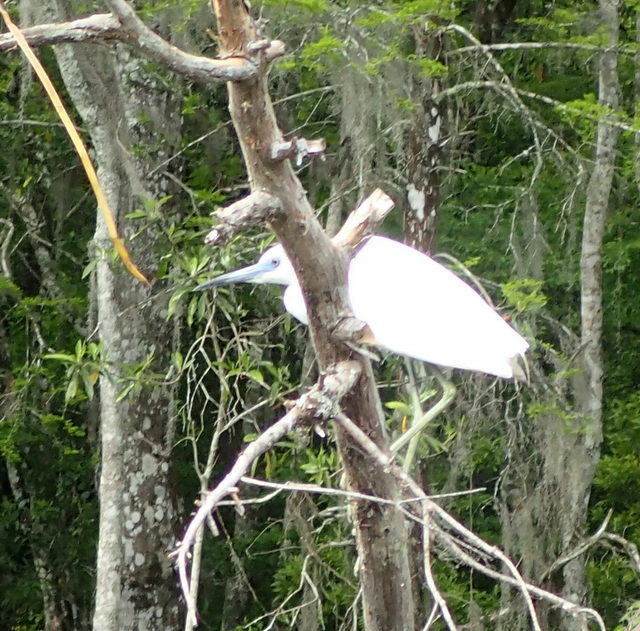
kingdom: Animalia
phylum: Chordata
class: Aves
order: Pelecaniformes
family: Ardeidae
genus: Egretta
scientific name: Egretta caerulea
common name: Little blue heron
